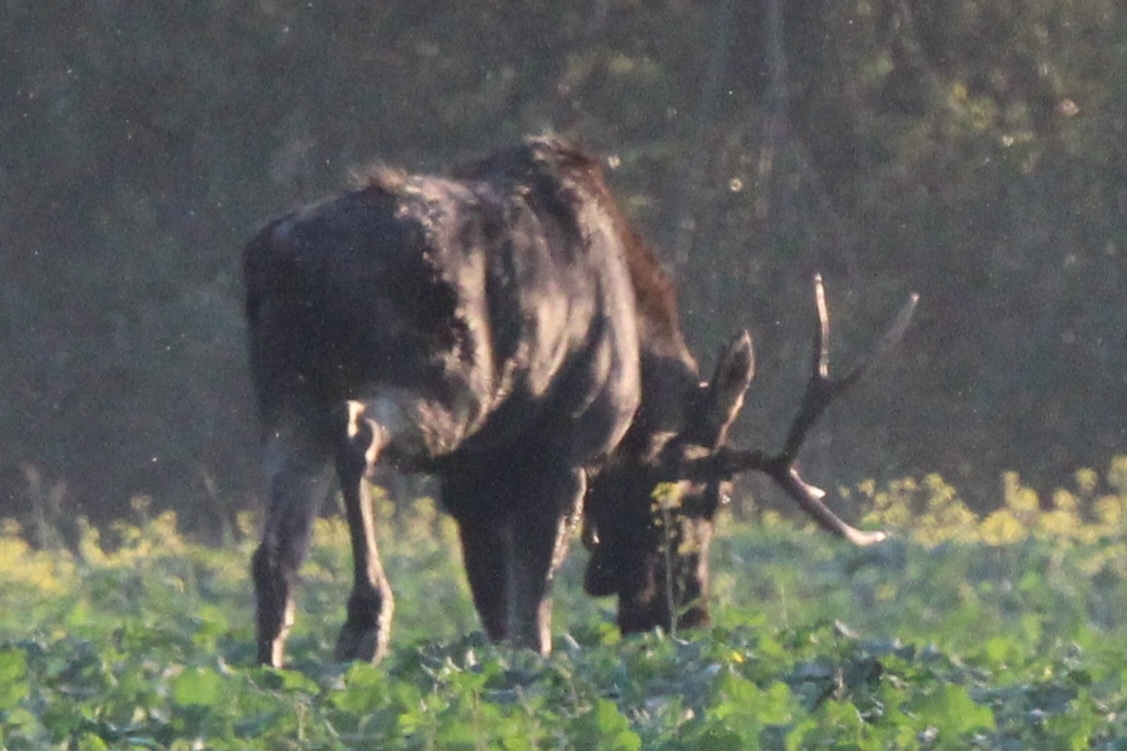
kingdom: Animalia
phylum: Chordata
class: Mammalia
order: Artiodactyla
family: Cervidae
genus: Alces
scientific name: Alces alces
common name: Moose
